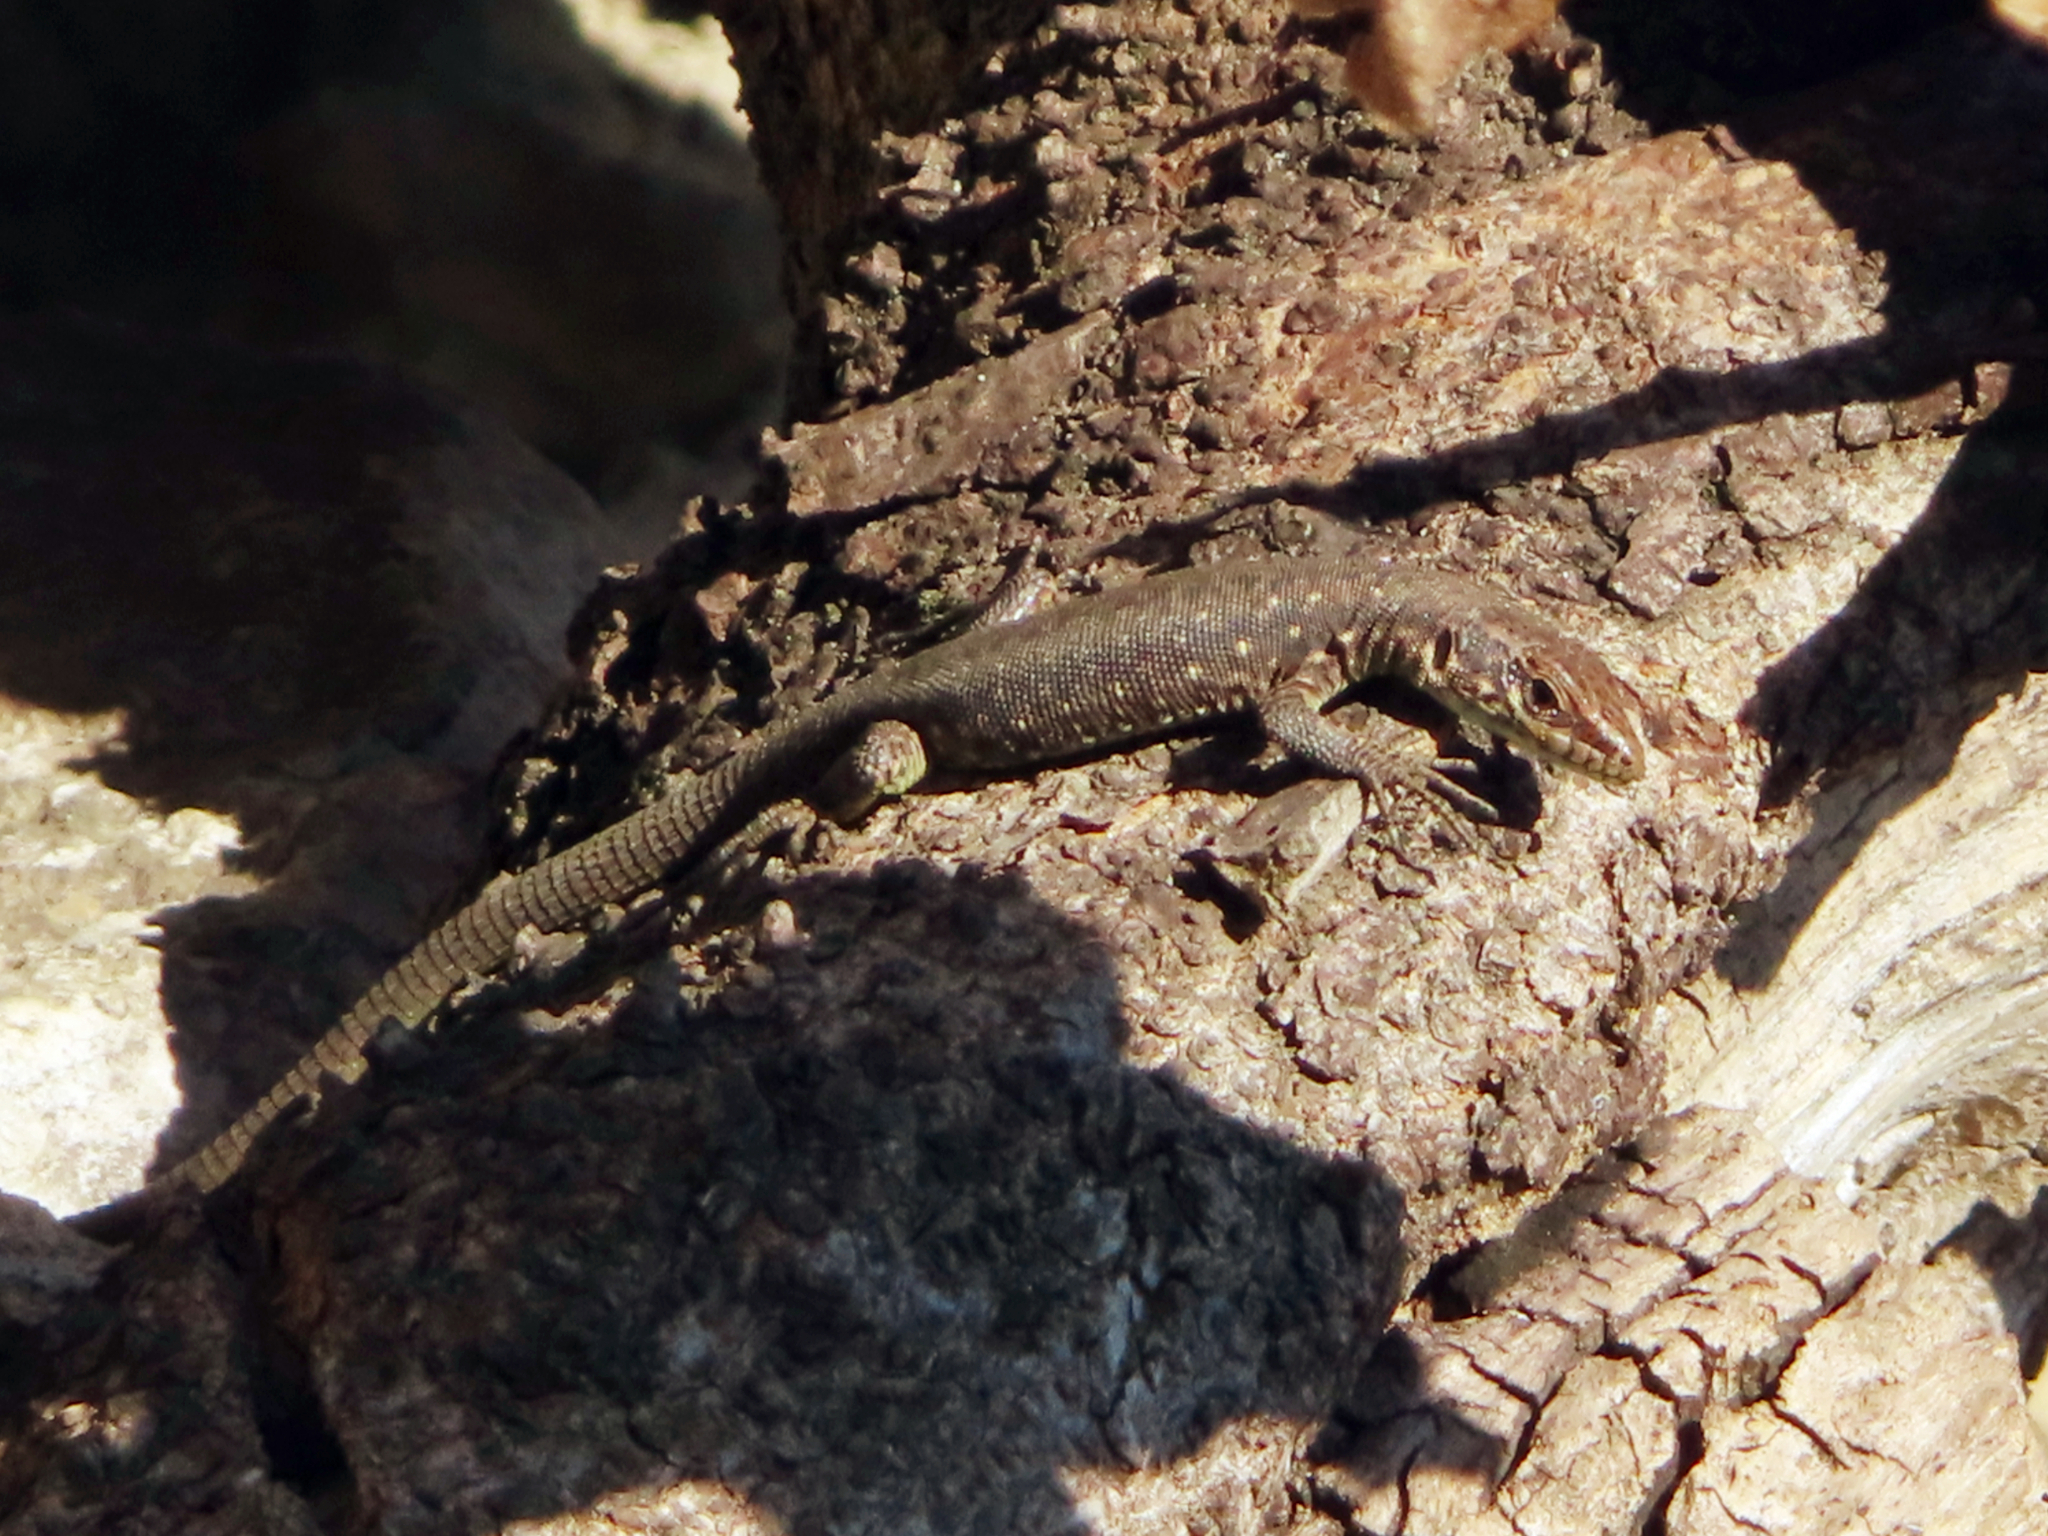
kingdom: Animalia
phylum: Chordata
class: Squamata
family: Lacertidae
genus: Darevskia
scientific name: Darevskia rudis
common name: Spiny-tailed lizard
